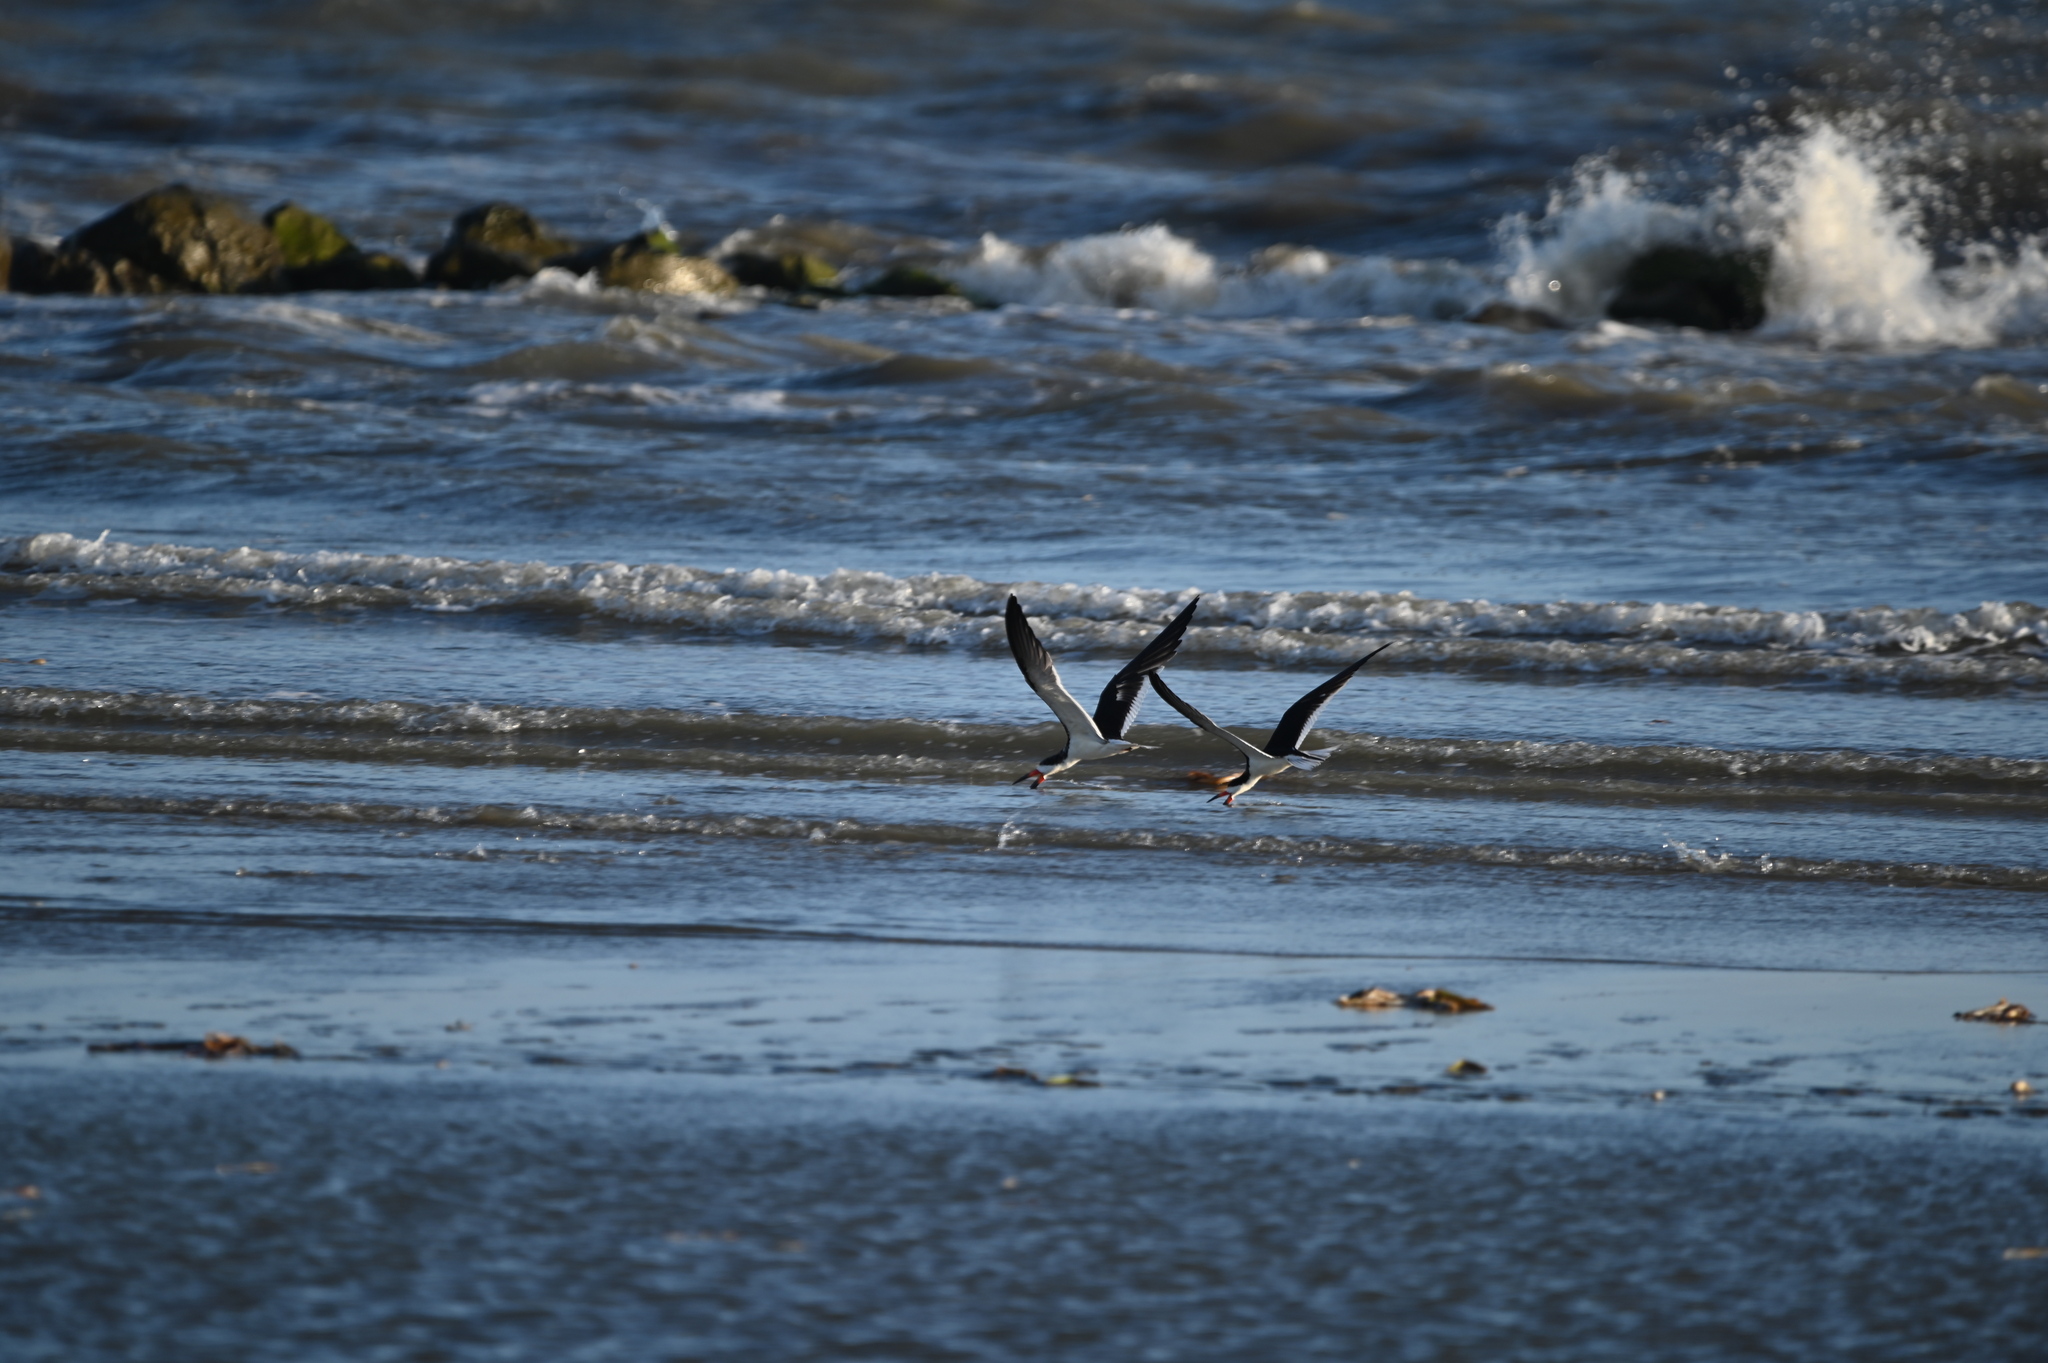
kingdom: Animalia
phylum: Chordata
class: Aves
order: Charadriiformes
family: Laridae
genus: Rynchops
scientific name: Rynchops niger
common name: Black skimmer
